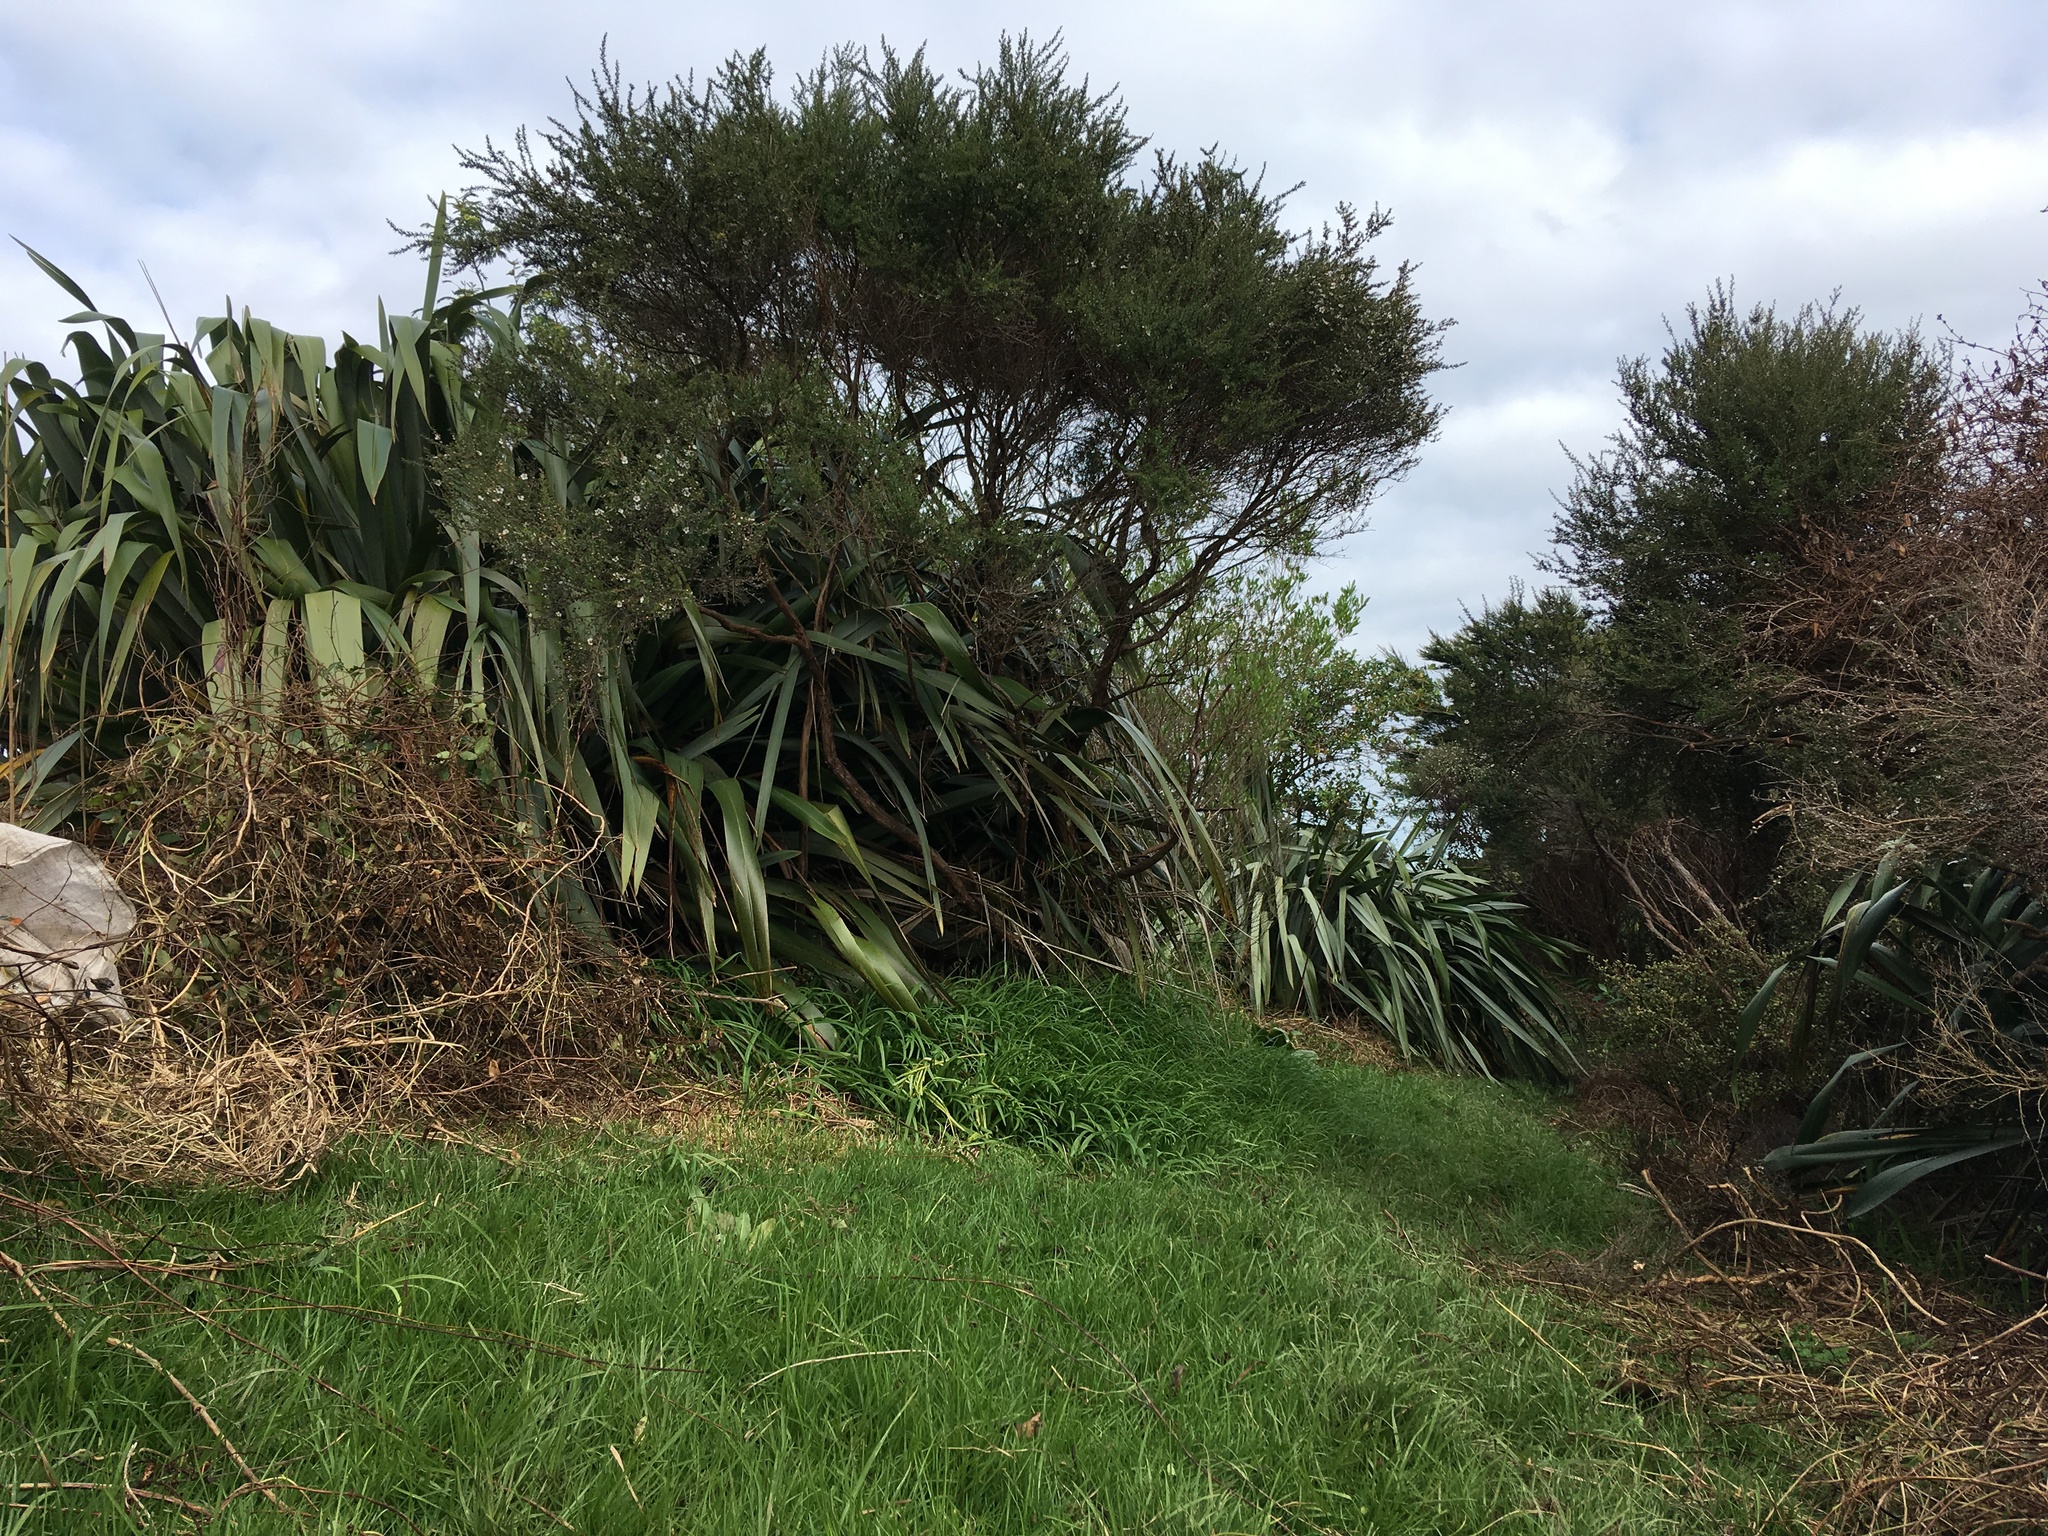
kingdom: Plantae
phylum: Tracheophyta
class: Liliopsida
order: Poales
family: Poaceae
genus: Cenchrus
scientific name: Cenchrus clandestinus
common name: Kikuyugrass
